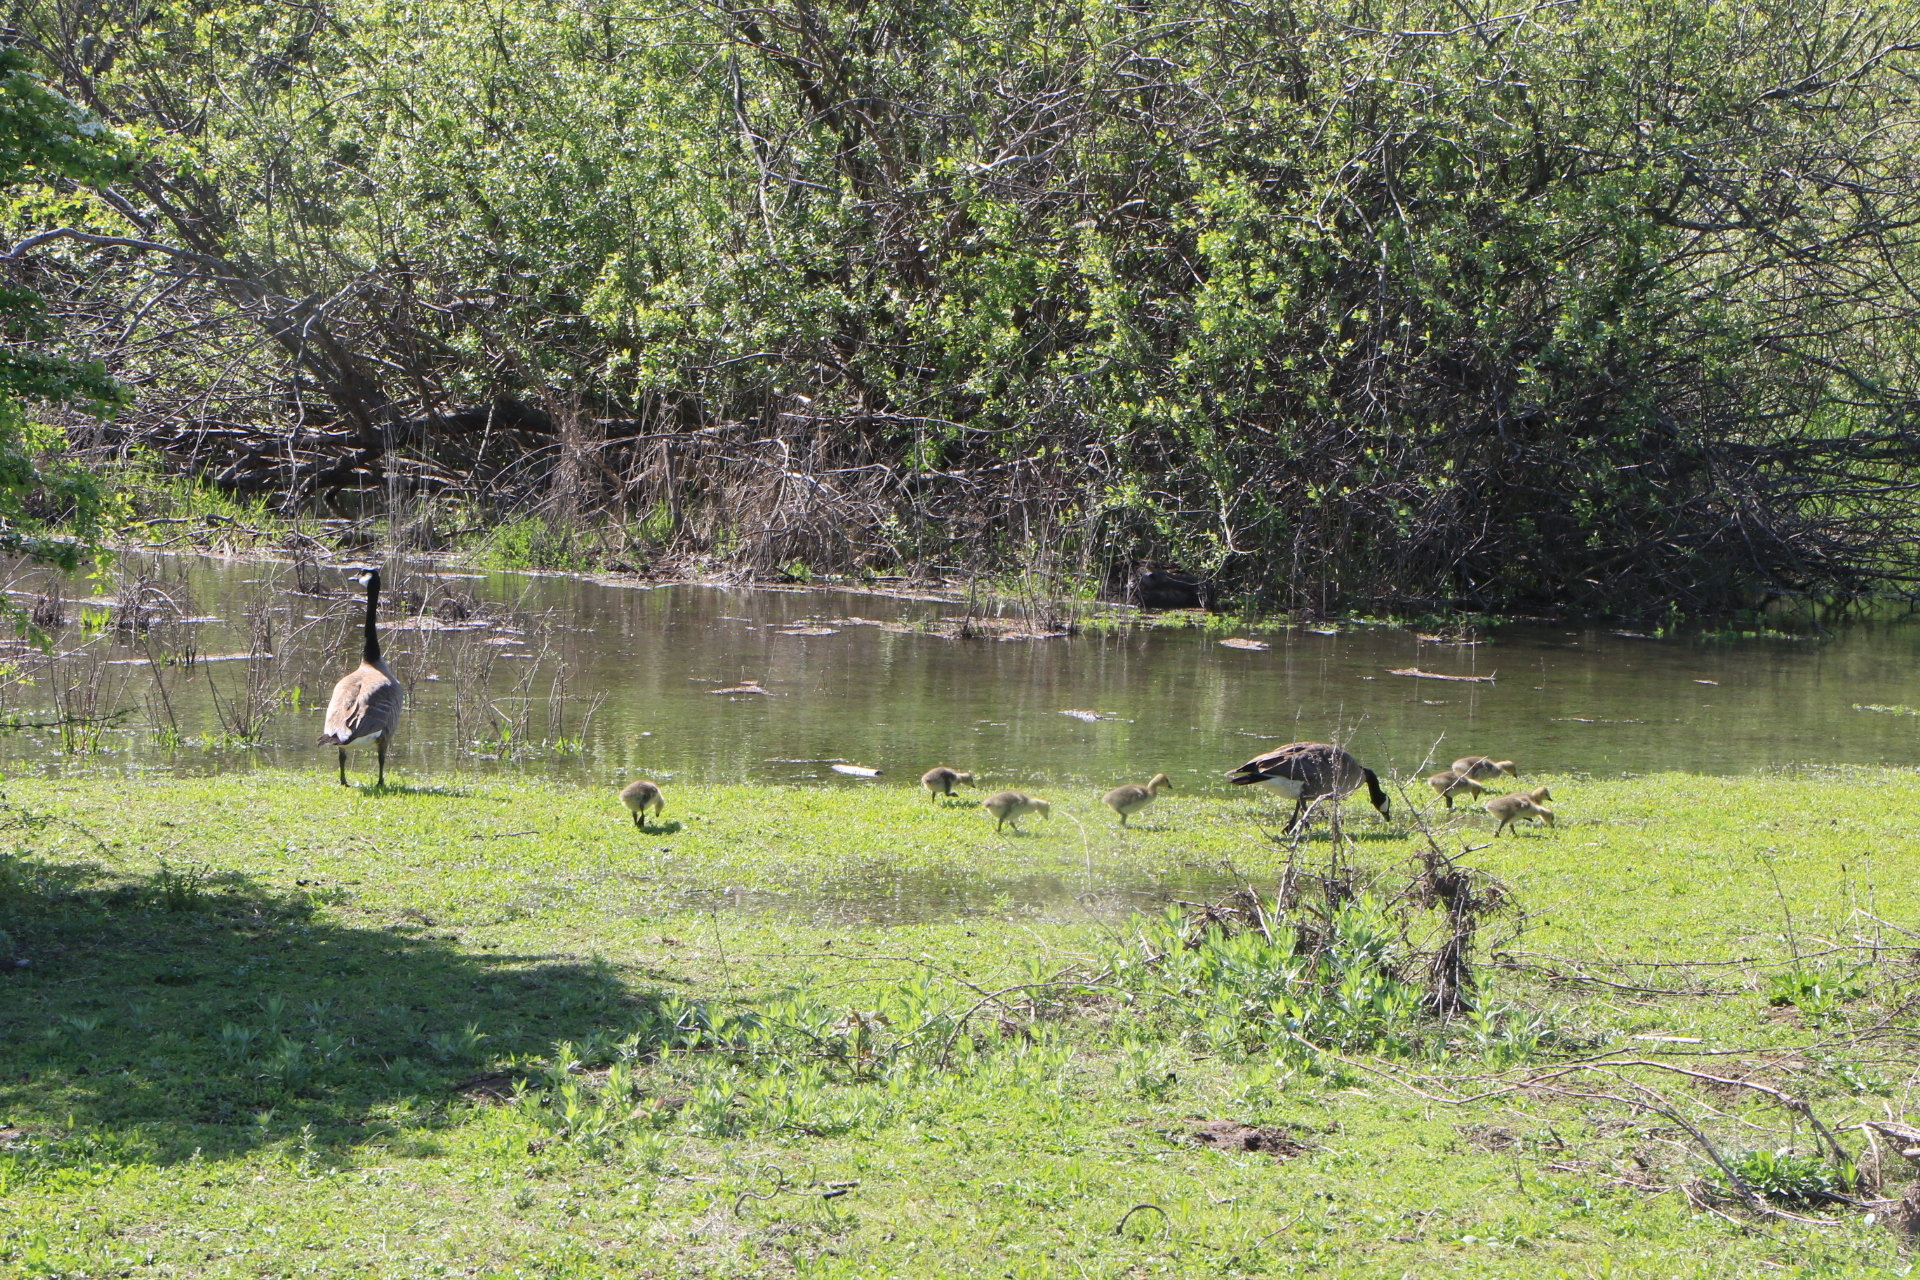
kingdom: Animalia
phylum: Chordata
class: Aves
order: Anseriformes
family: Anatidae
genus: Branta
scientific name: Branta canadensis
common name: Canada goose
